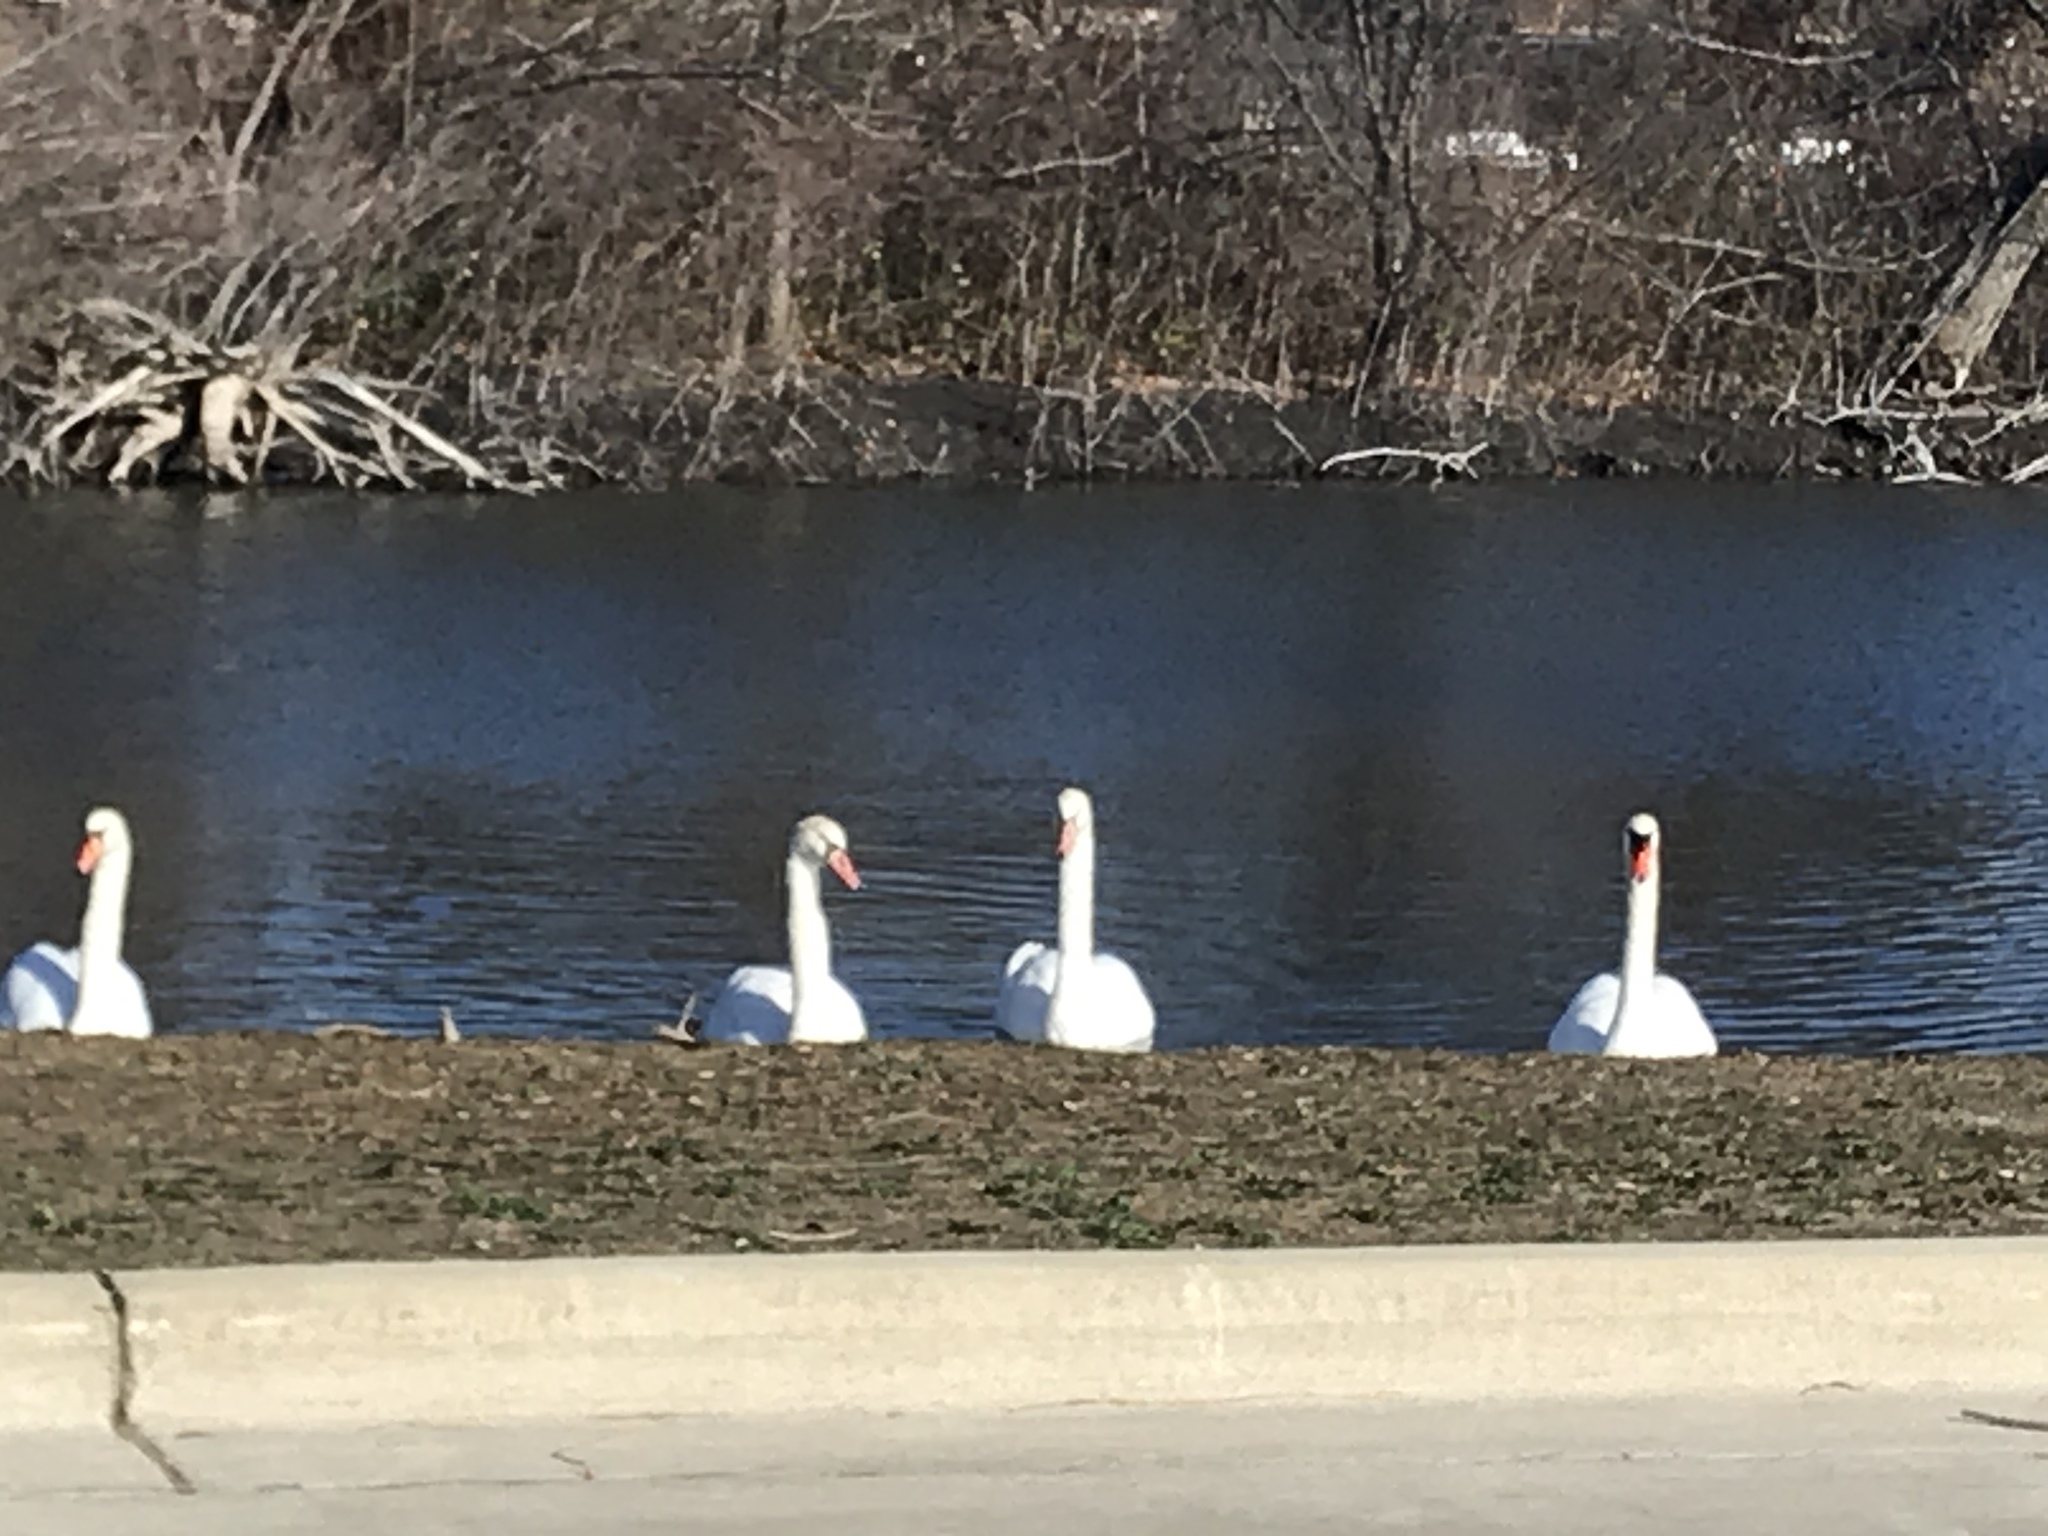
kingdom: Animalia
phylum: Chordata
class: Aves
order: Anseriformes
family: Anatidae
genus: Cygnus
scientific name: Cygnus olor
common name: Mute swan
